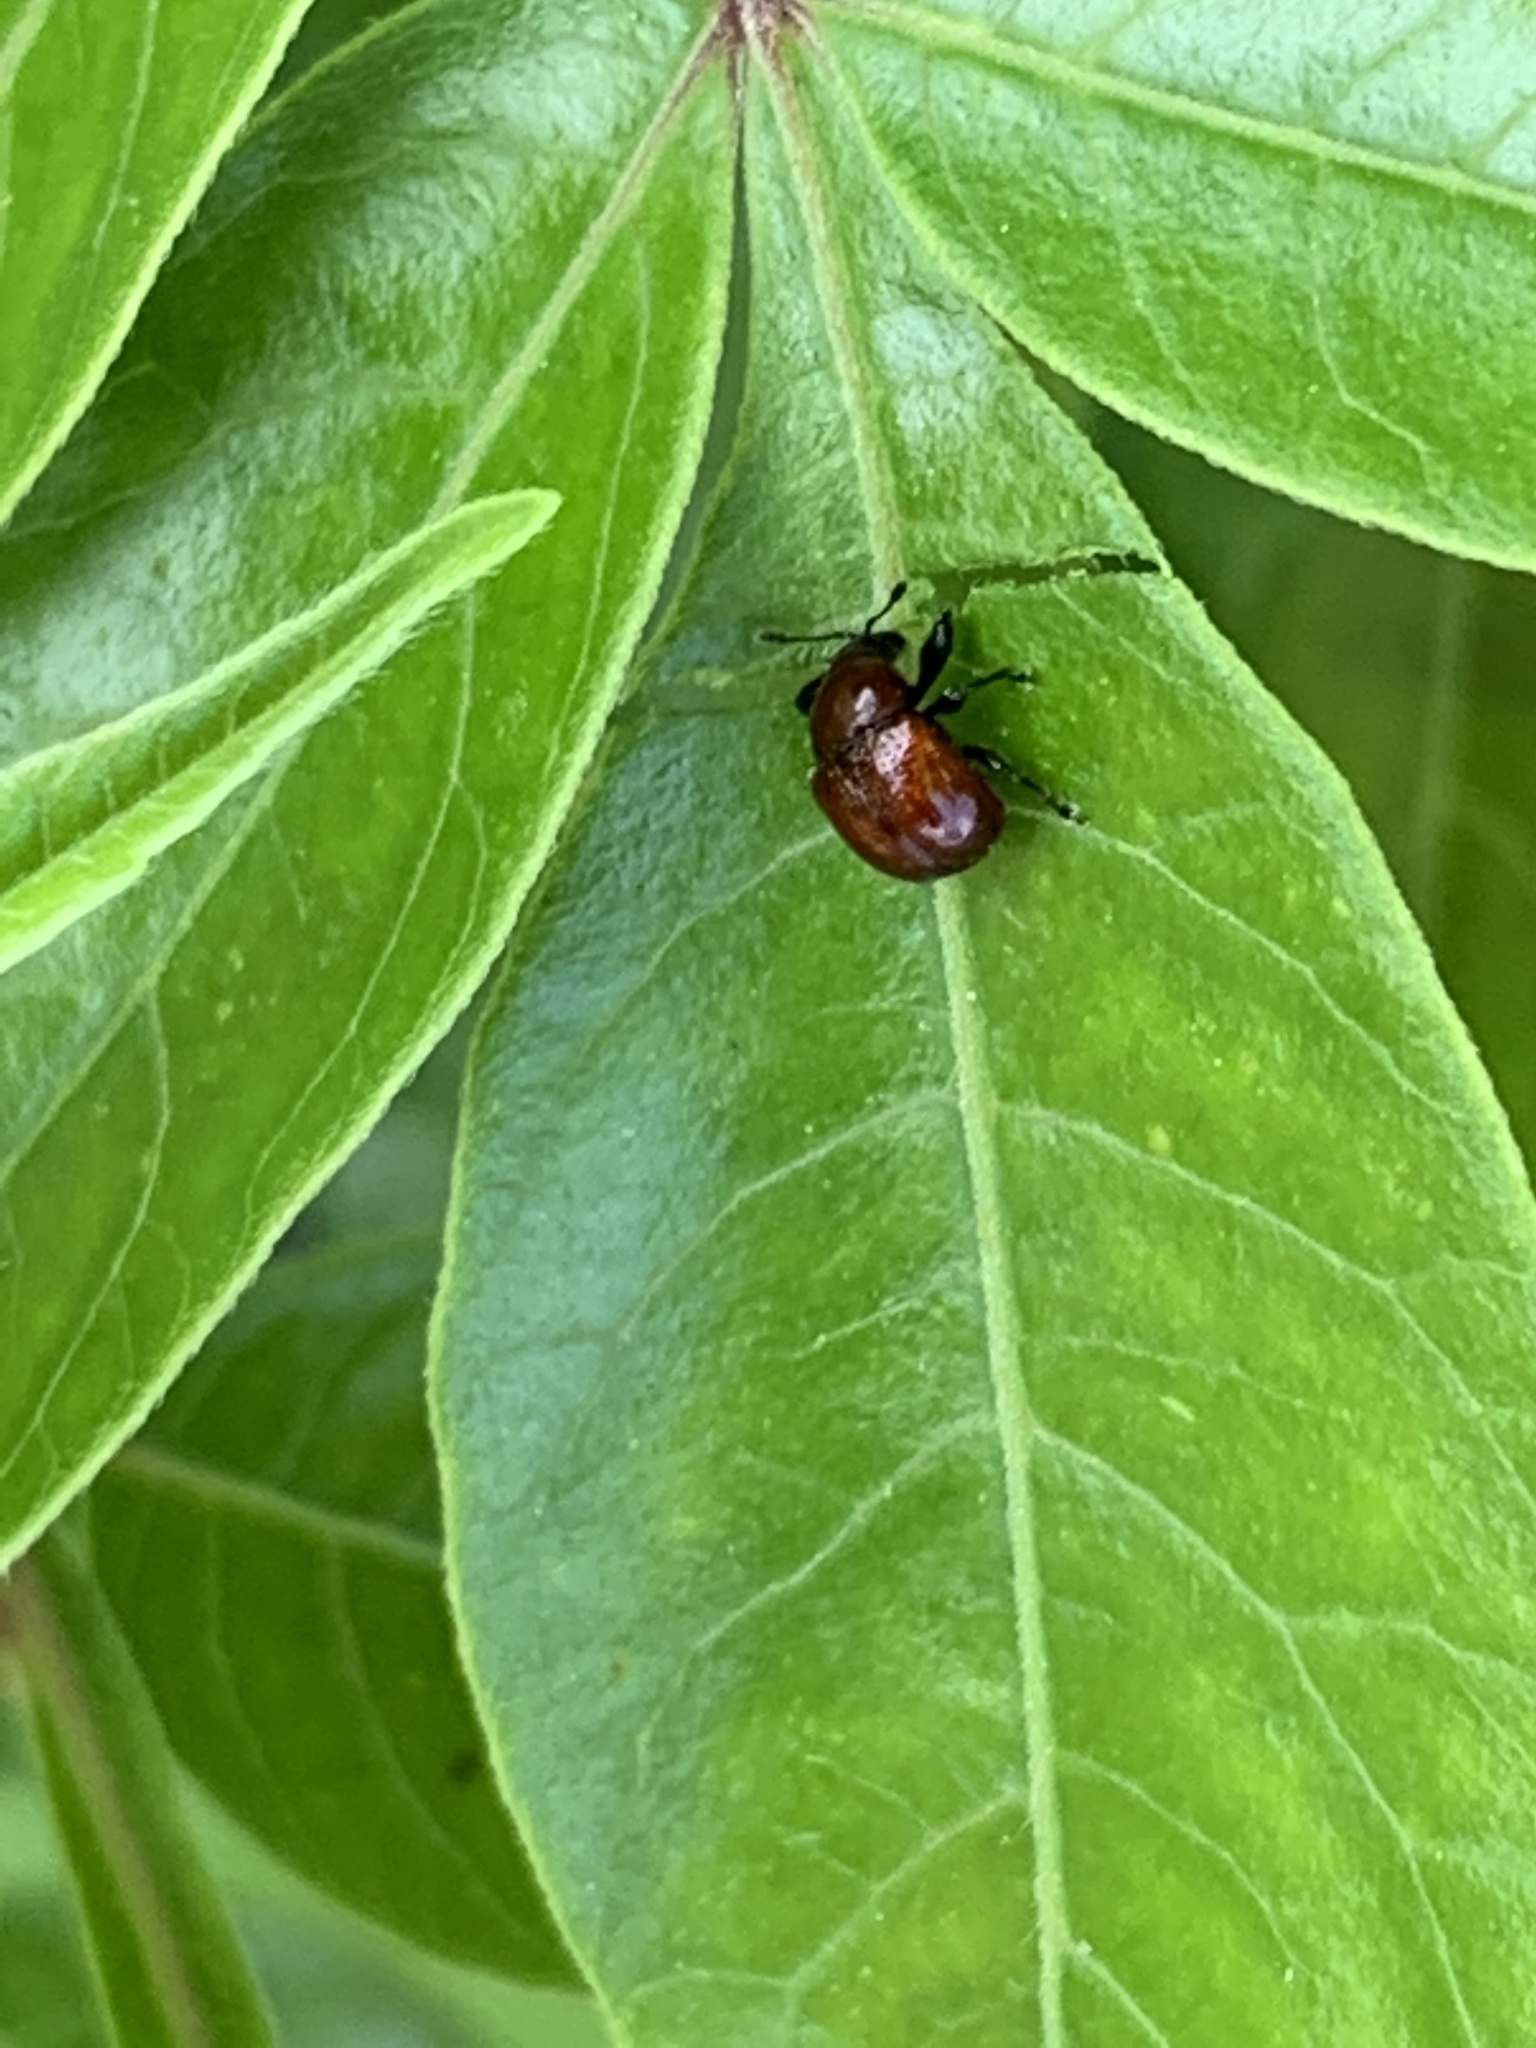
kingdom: Animalia
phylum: Arthropoda
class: Insecta
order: Coleoptera
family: Attelabidae
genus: Attelabus
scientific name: Attelabus bipustulatus
